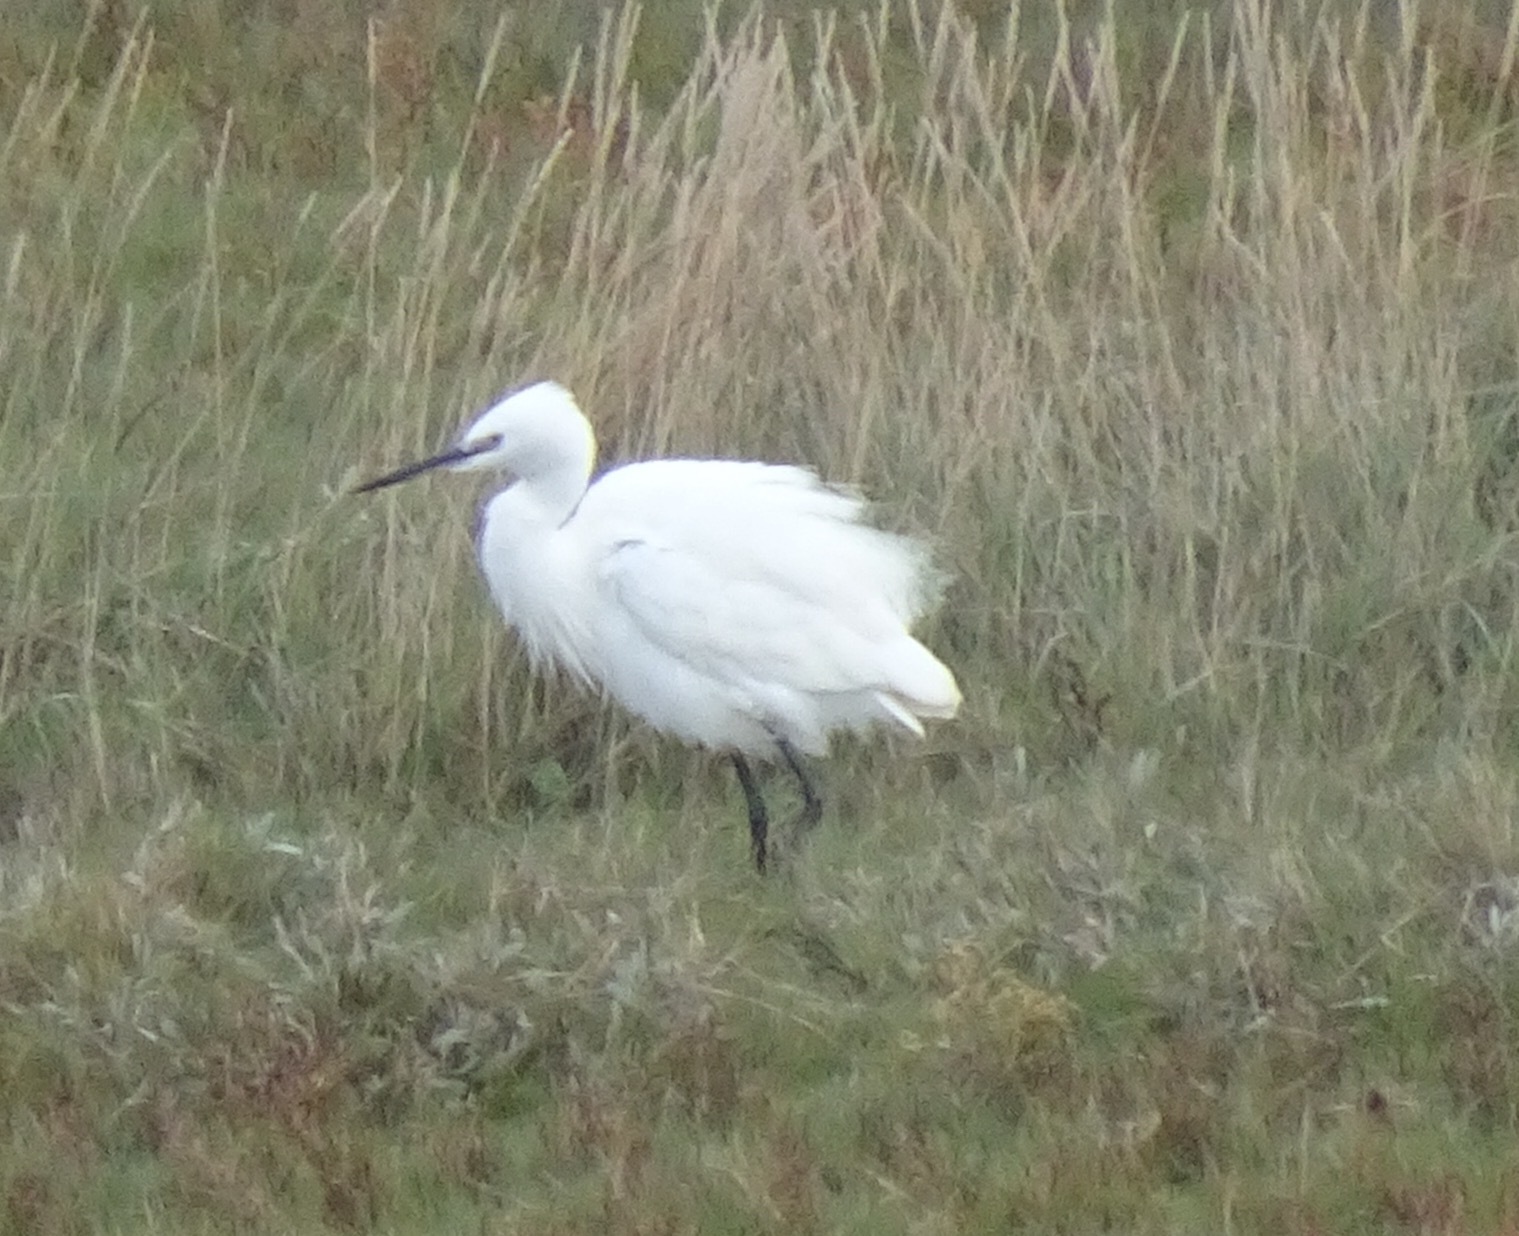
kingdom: Animalia
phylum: Chordata
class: Aves
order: Pelecaniformes
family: Ardeidae
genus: Egretta
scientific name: Egretta garzetta
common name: Little egret
